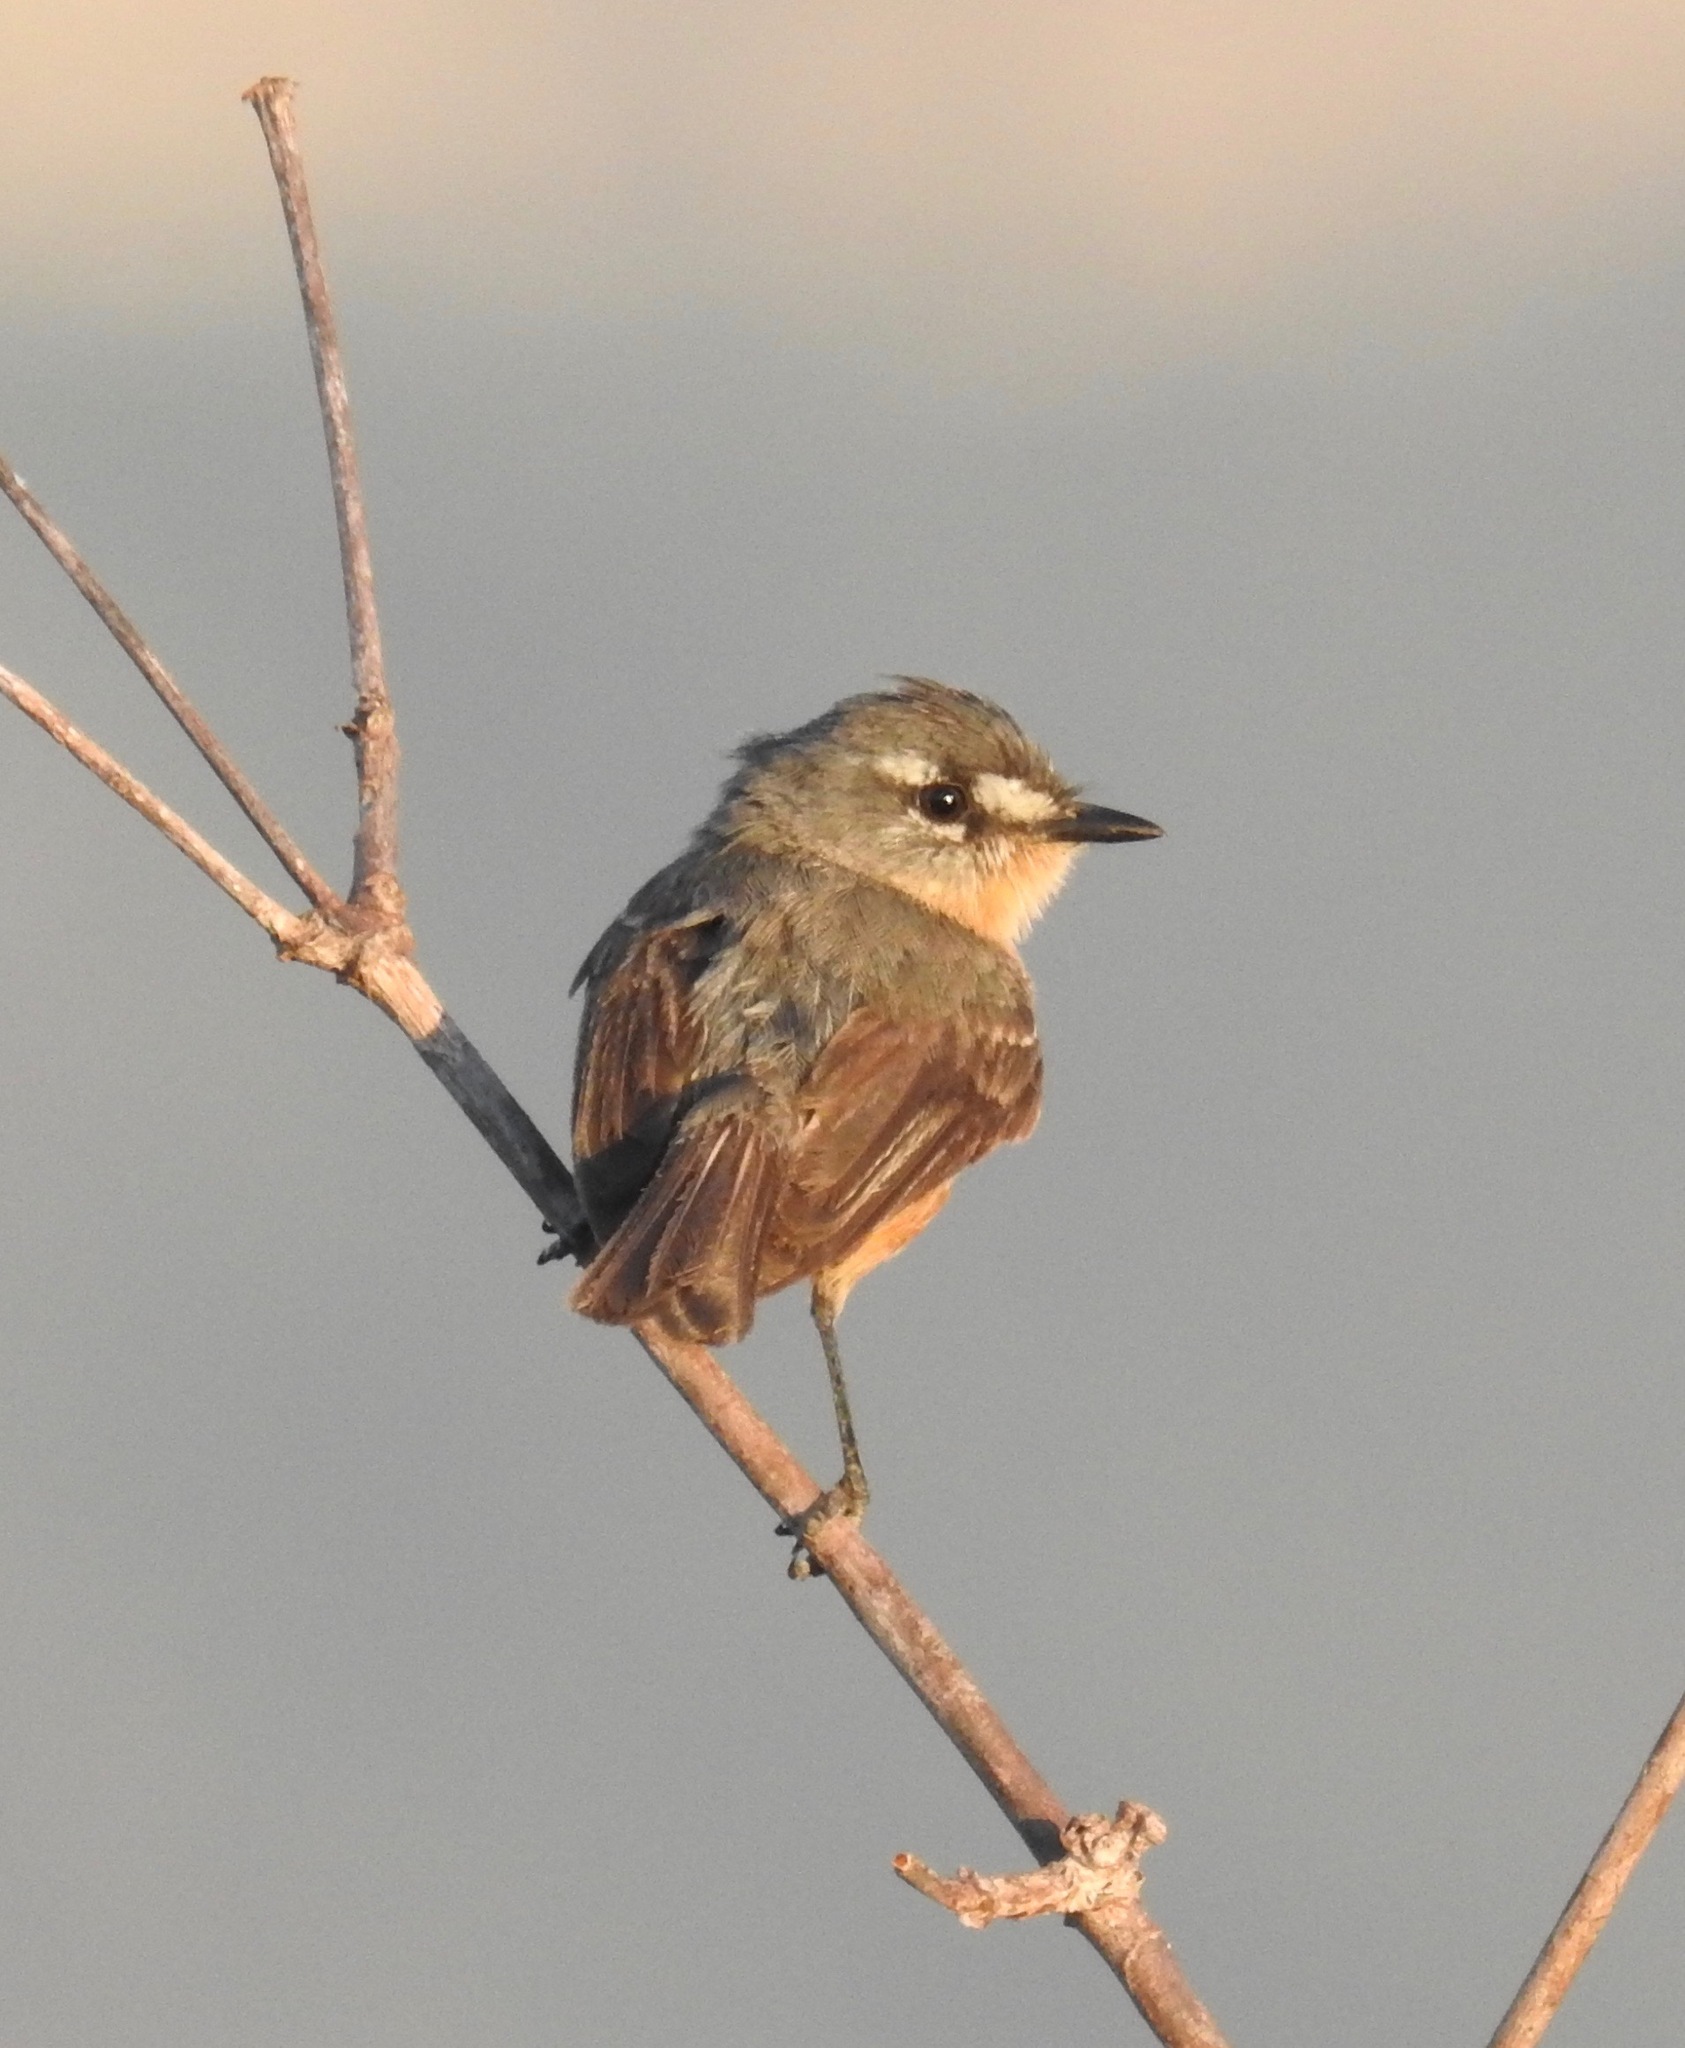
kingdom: Animalia
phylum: Chordata
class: Aves
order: Passeriformes
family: Tyrannidae
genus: Polystictus
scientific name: Polystictus superciliaris
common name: Grey-backed tachuri
